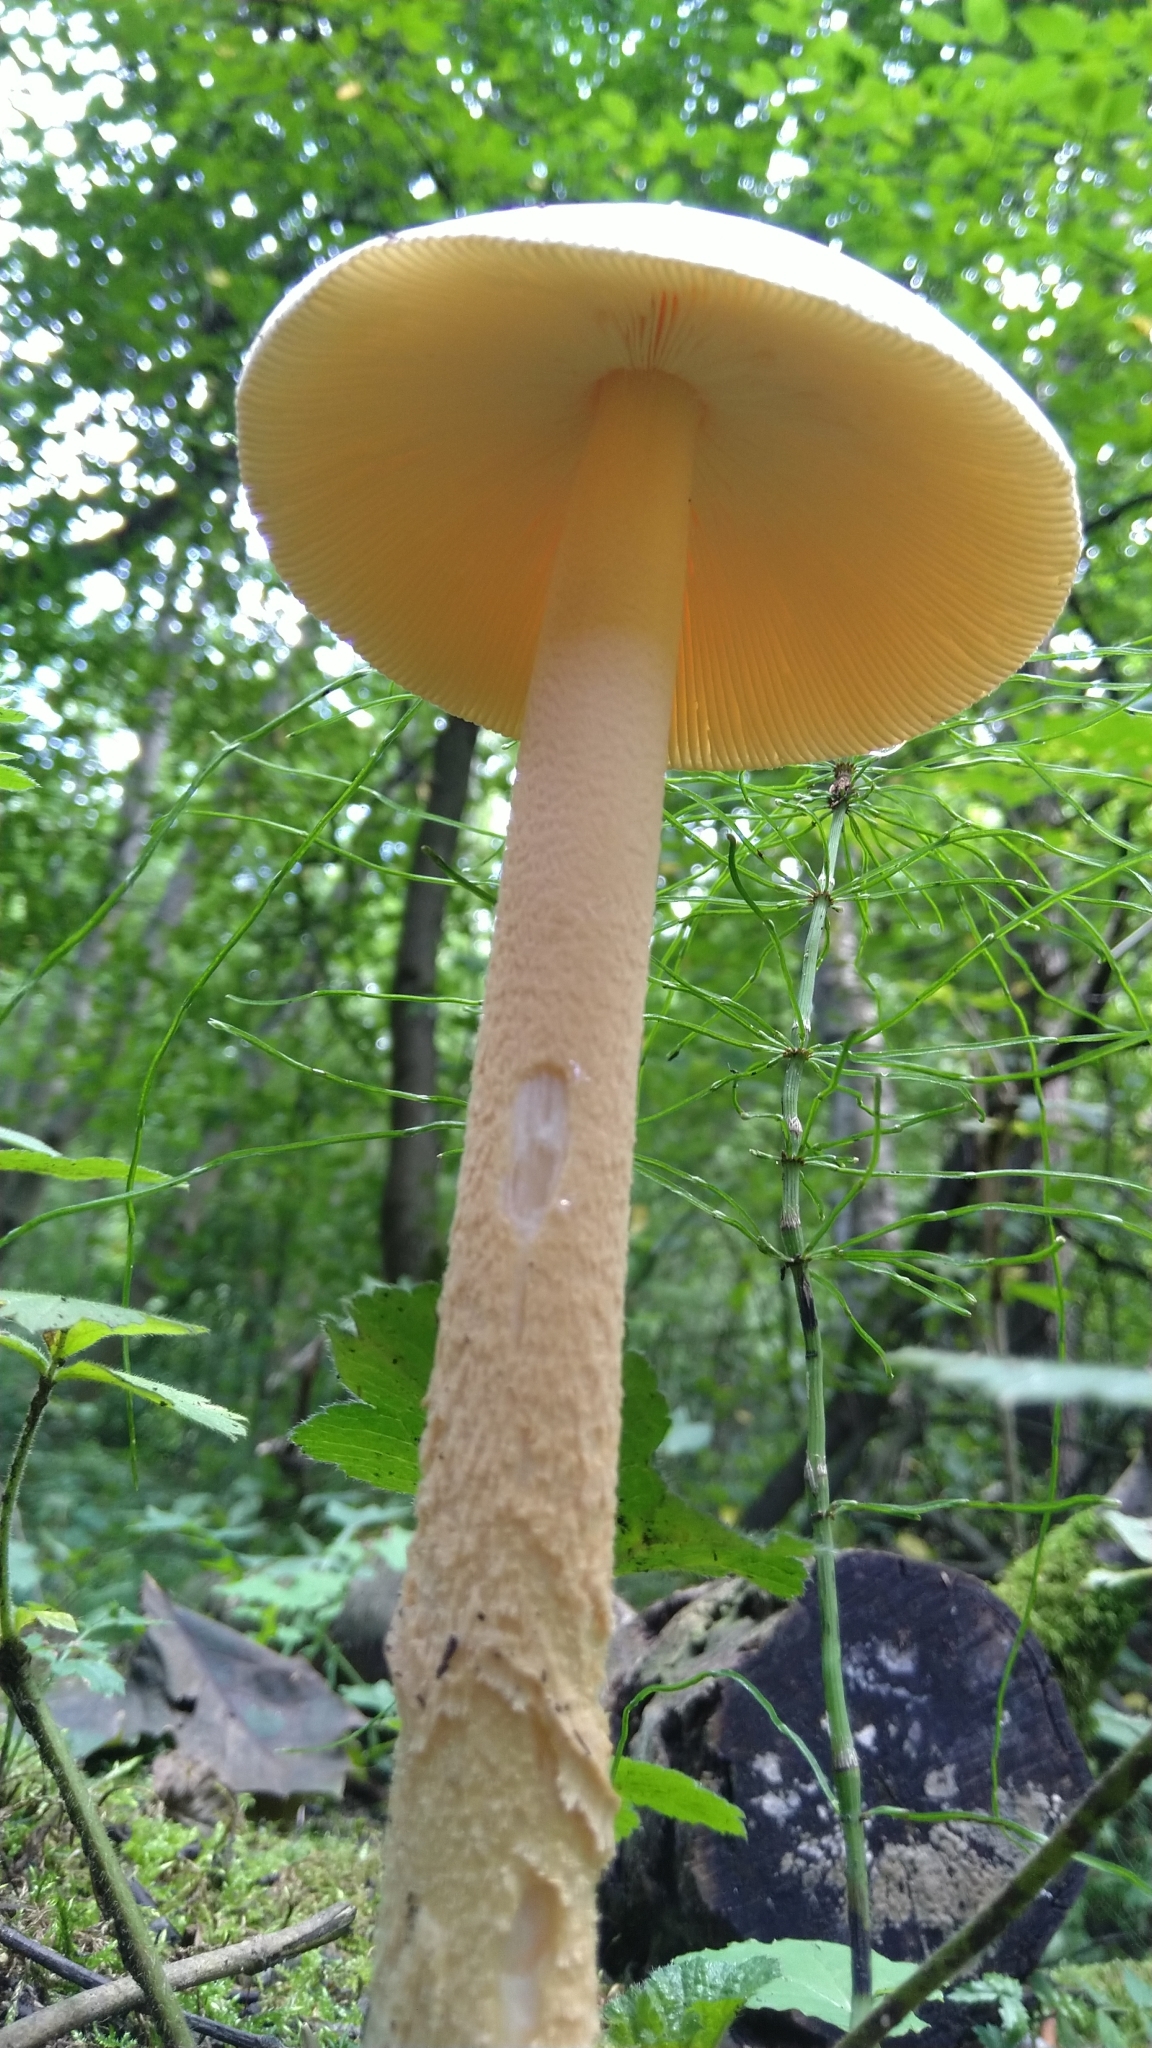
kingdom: Fungi
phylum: Basidiomycota
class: Agaricomycetes
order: Agaricales
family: Amanitaceae
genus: Amanita
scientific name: Amanita crocea
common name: Orange grisette
